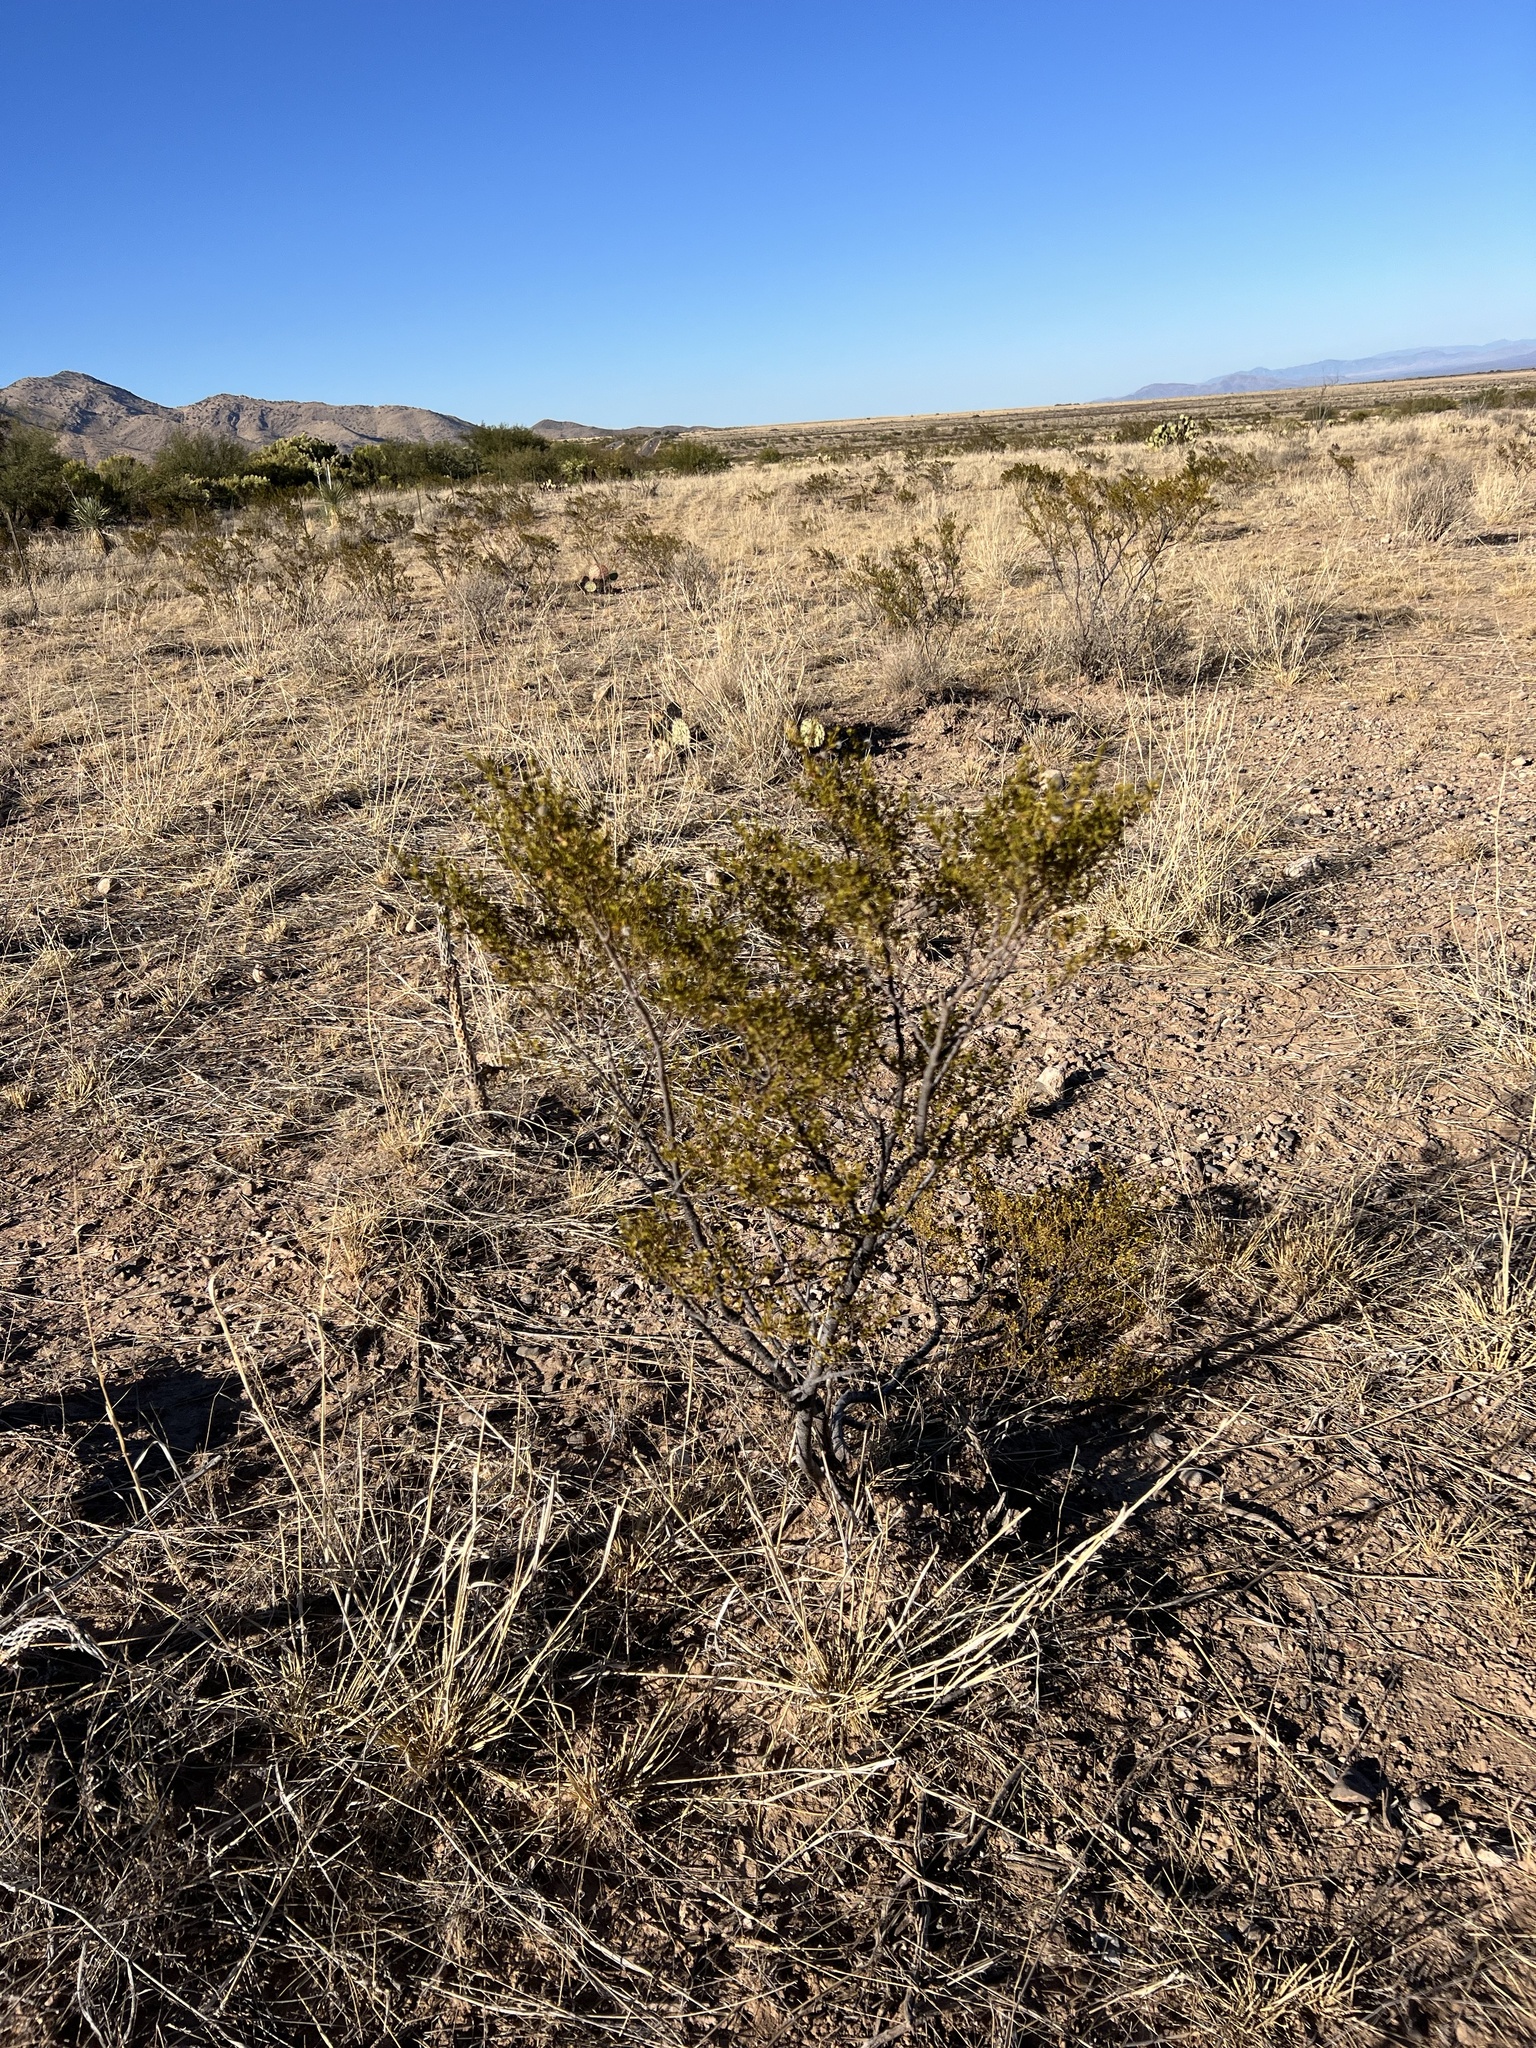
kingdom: Plantae
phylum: Tracheophyta
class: Magnoliopsida
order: Zygophyllales
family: Zygophyllaceae
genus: Larrea
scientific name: Larrea tridentata
